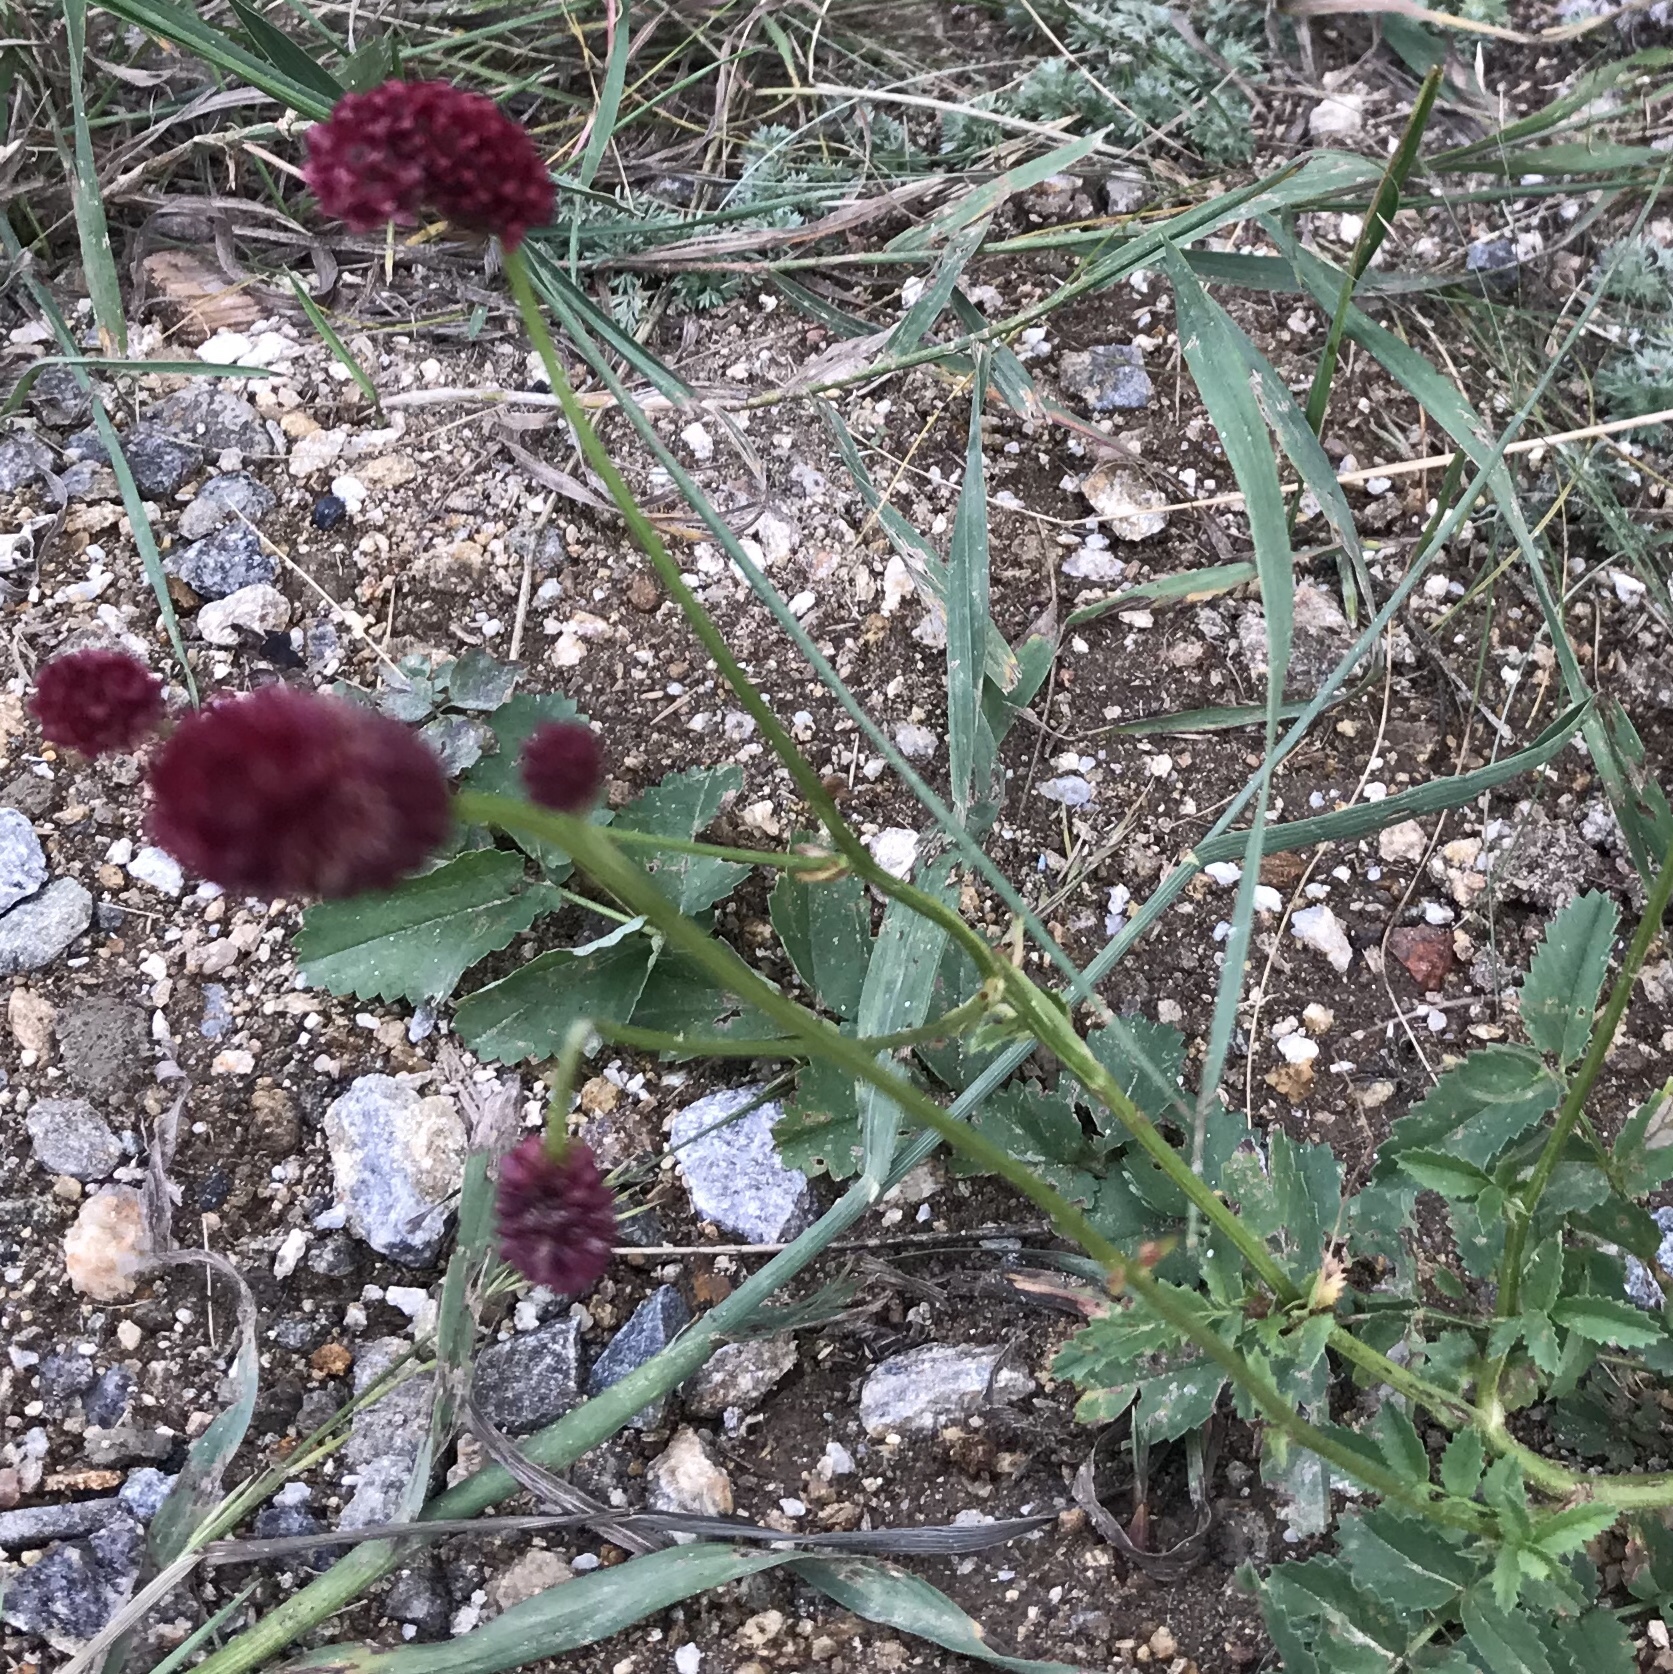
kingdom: Plantae
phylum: Tracheophyta
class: Magnoliopsida
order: Rosales
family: Rosaceae
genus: Sanguisorba
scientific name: Sanguisorba officinalis
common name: Great burnet
